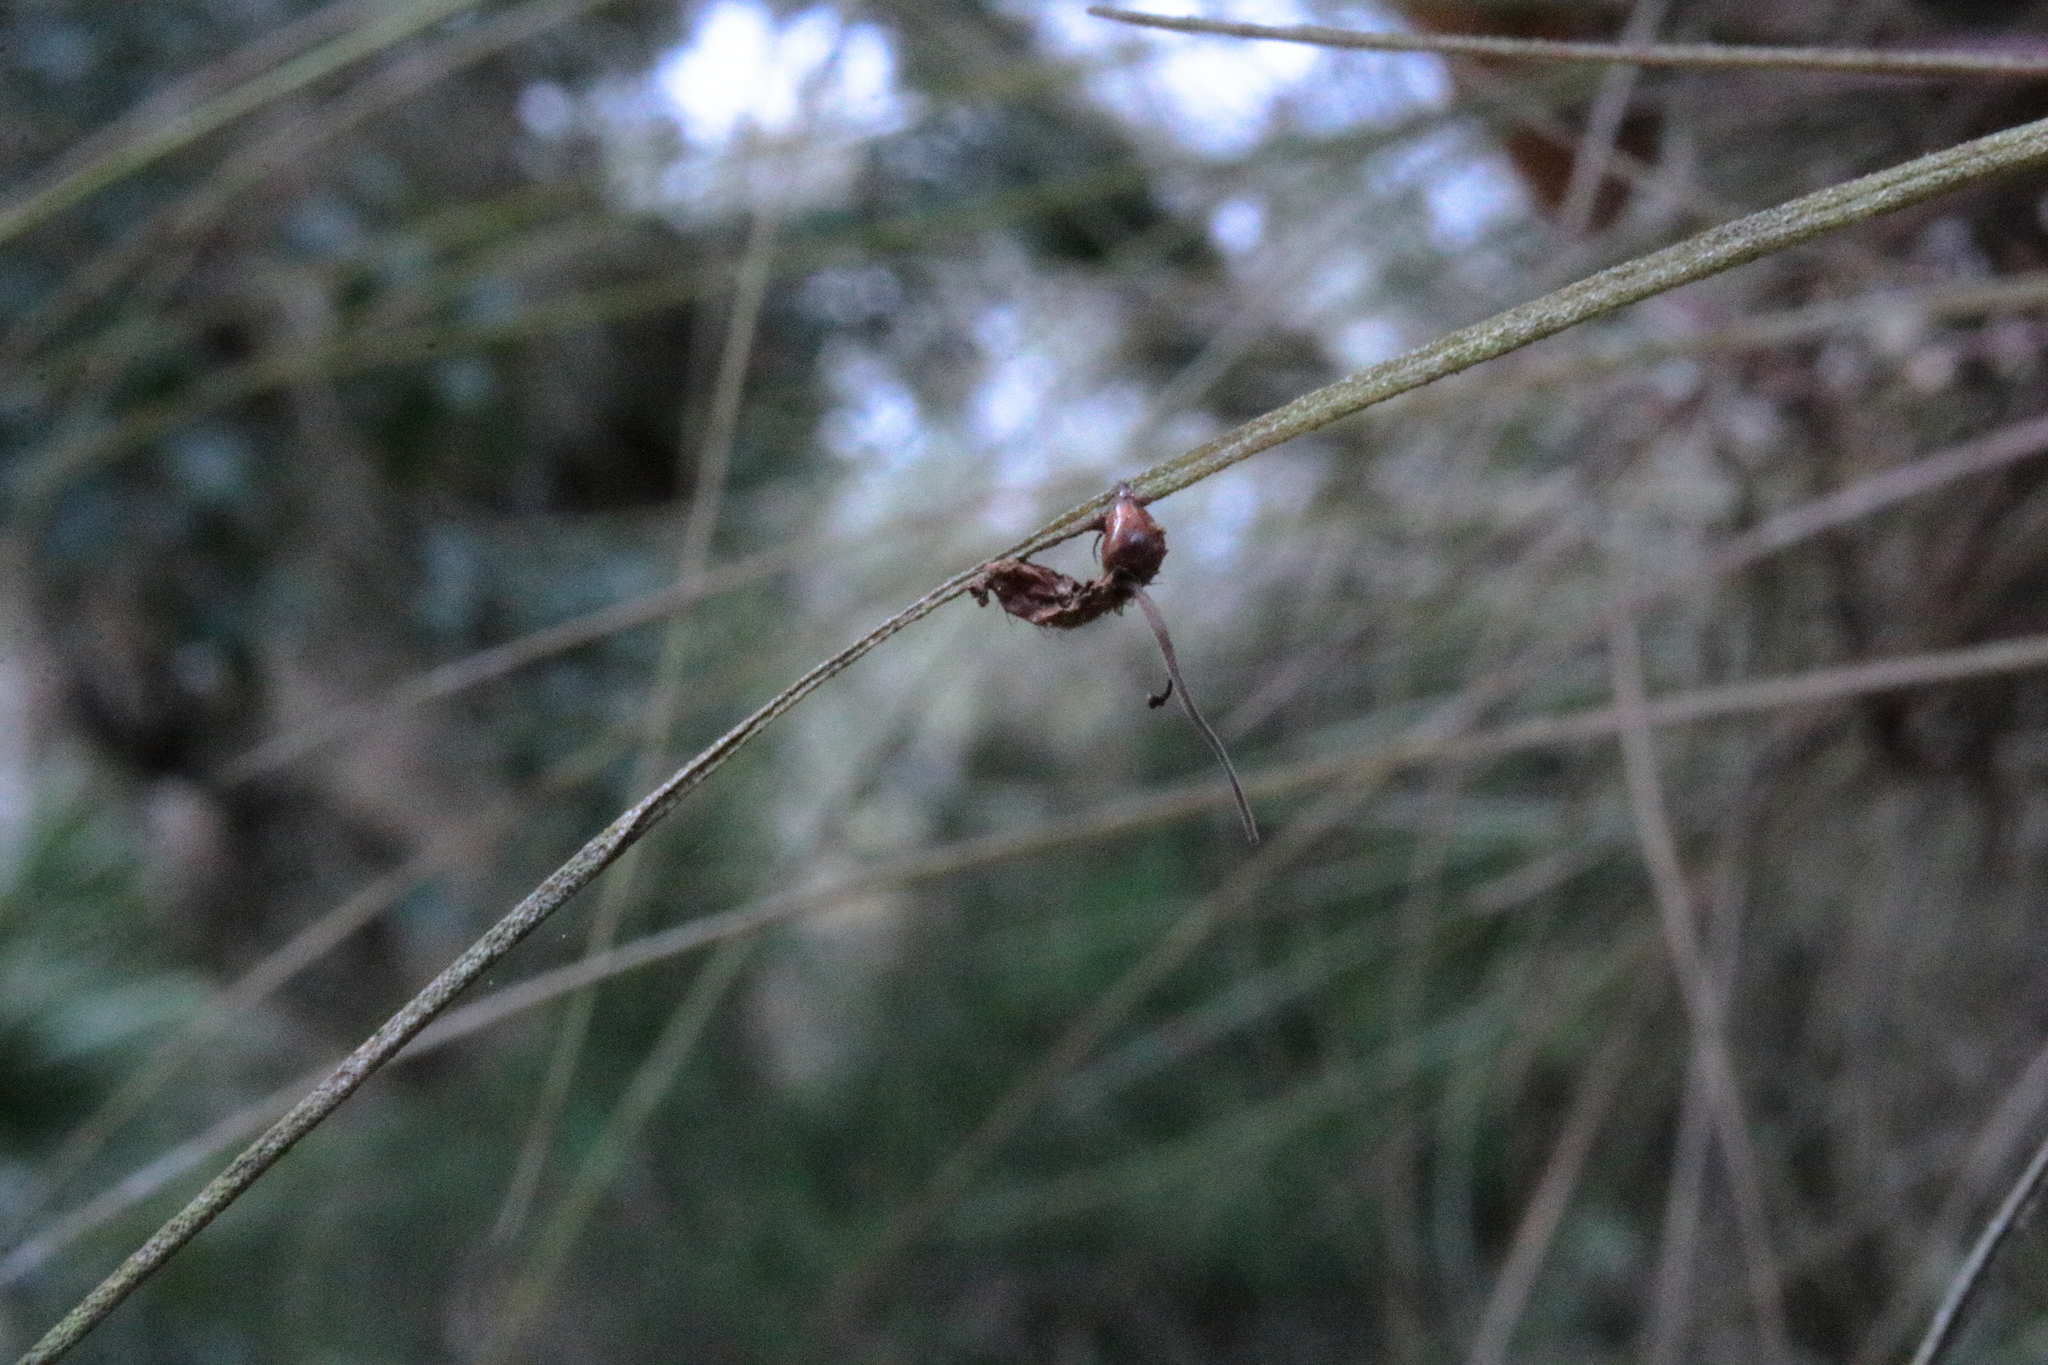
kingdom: Fungi
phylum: Ascomycota
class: Sordariomycetes
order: Hypocreales
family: Ophiocordycipitaceae
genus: Ophiocordyceps
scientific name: Ophiocordyceps camponoti-floridani
